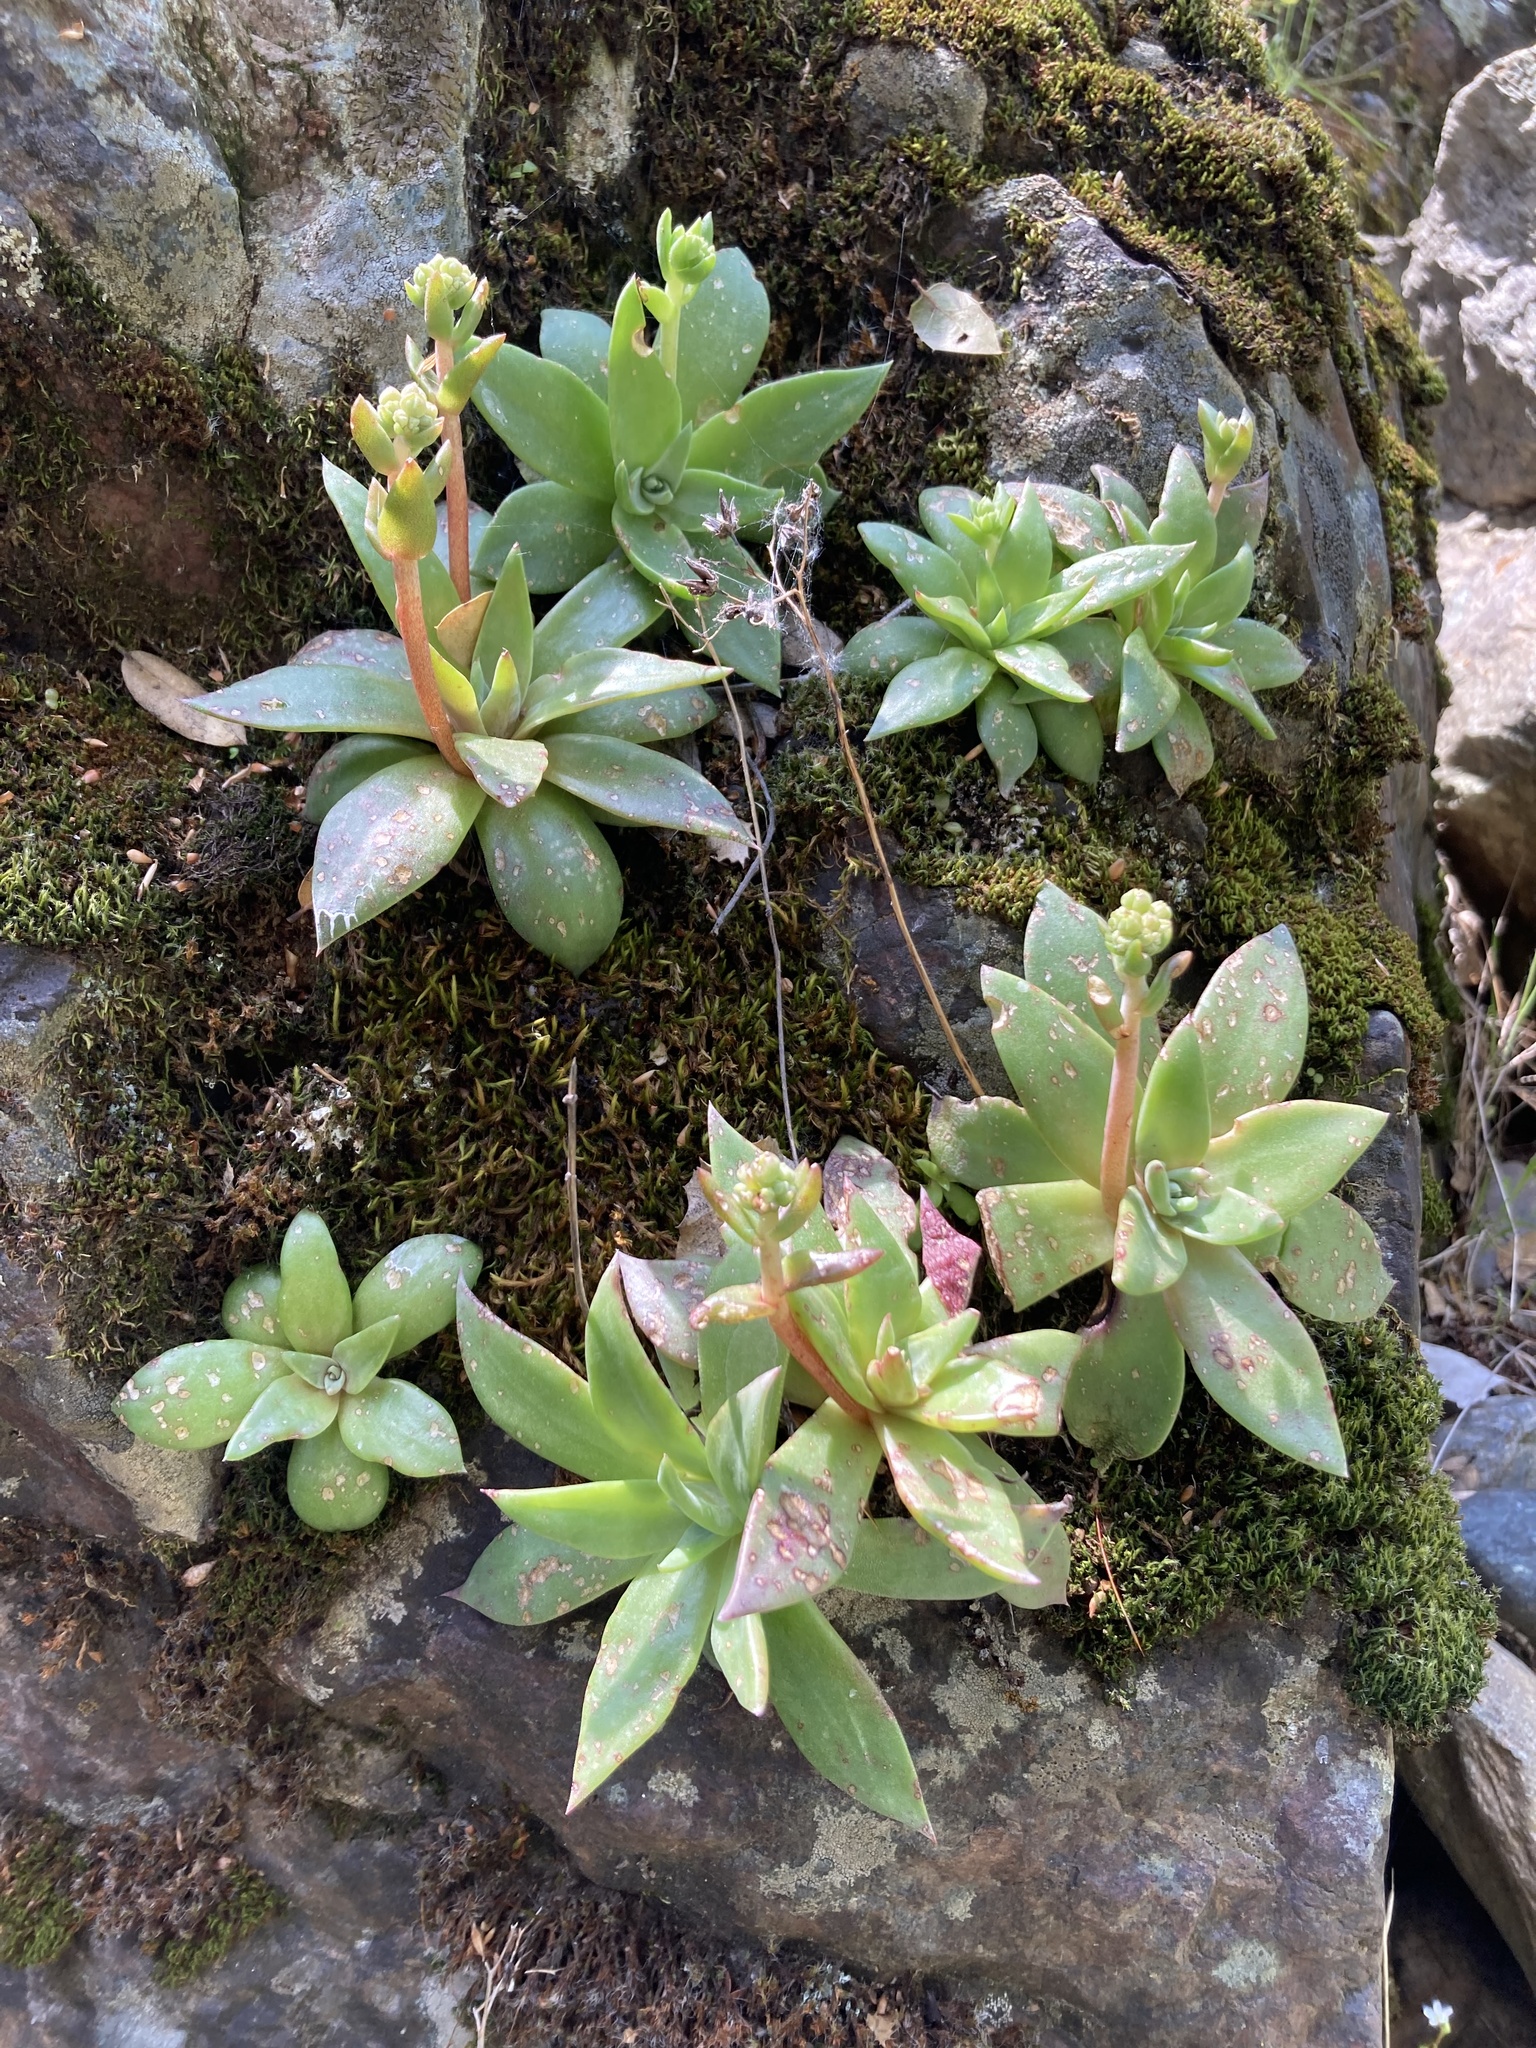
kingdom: Plantae
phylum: Tracheophyta
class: Magnoliopsida
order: Saxifragales
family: Crassulaceae
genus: Dudleya
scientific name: Dudleya cymosa
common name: Canyon dudleya
